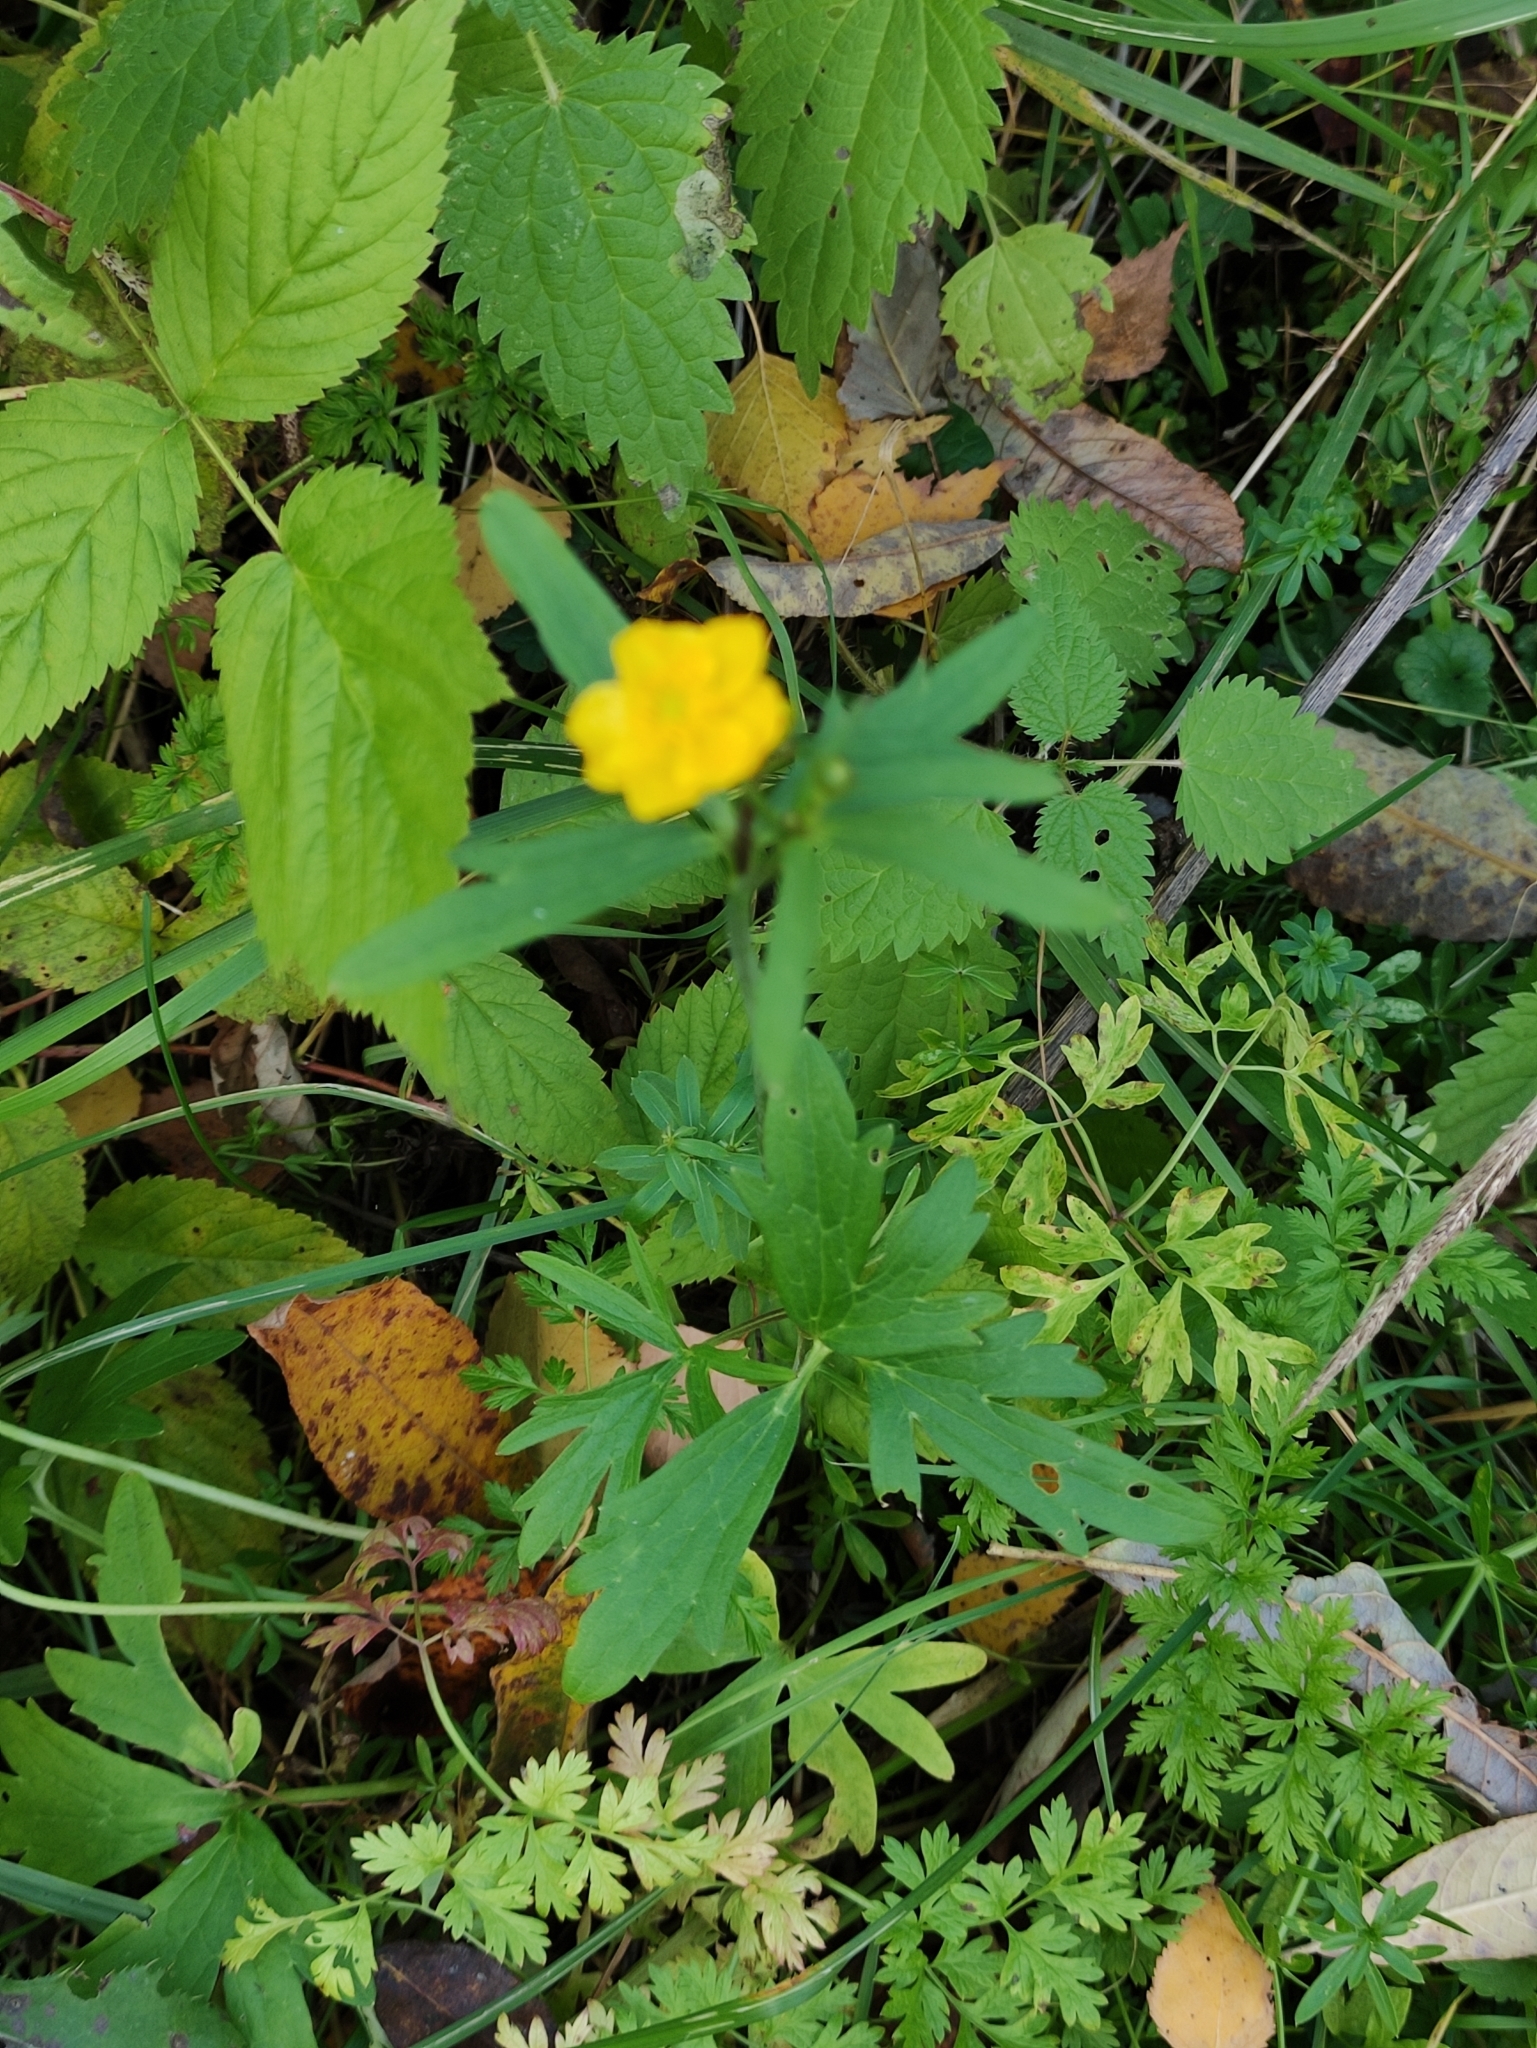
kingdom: Plantae
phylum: Tracheophyta
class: Magnoliopsida
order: Ranunculales
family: Ranunculaceae
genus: Ranunculus
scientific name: Ranunculus acris
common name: Meadow buttercup
